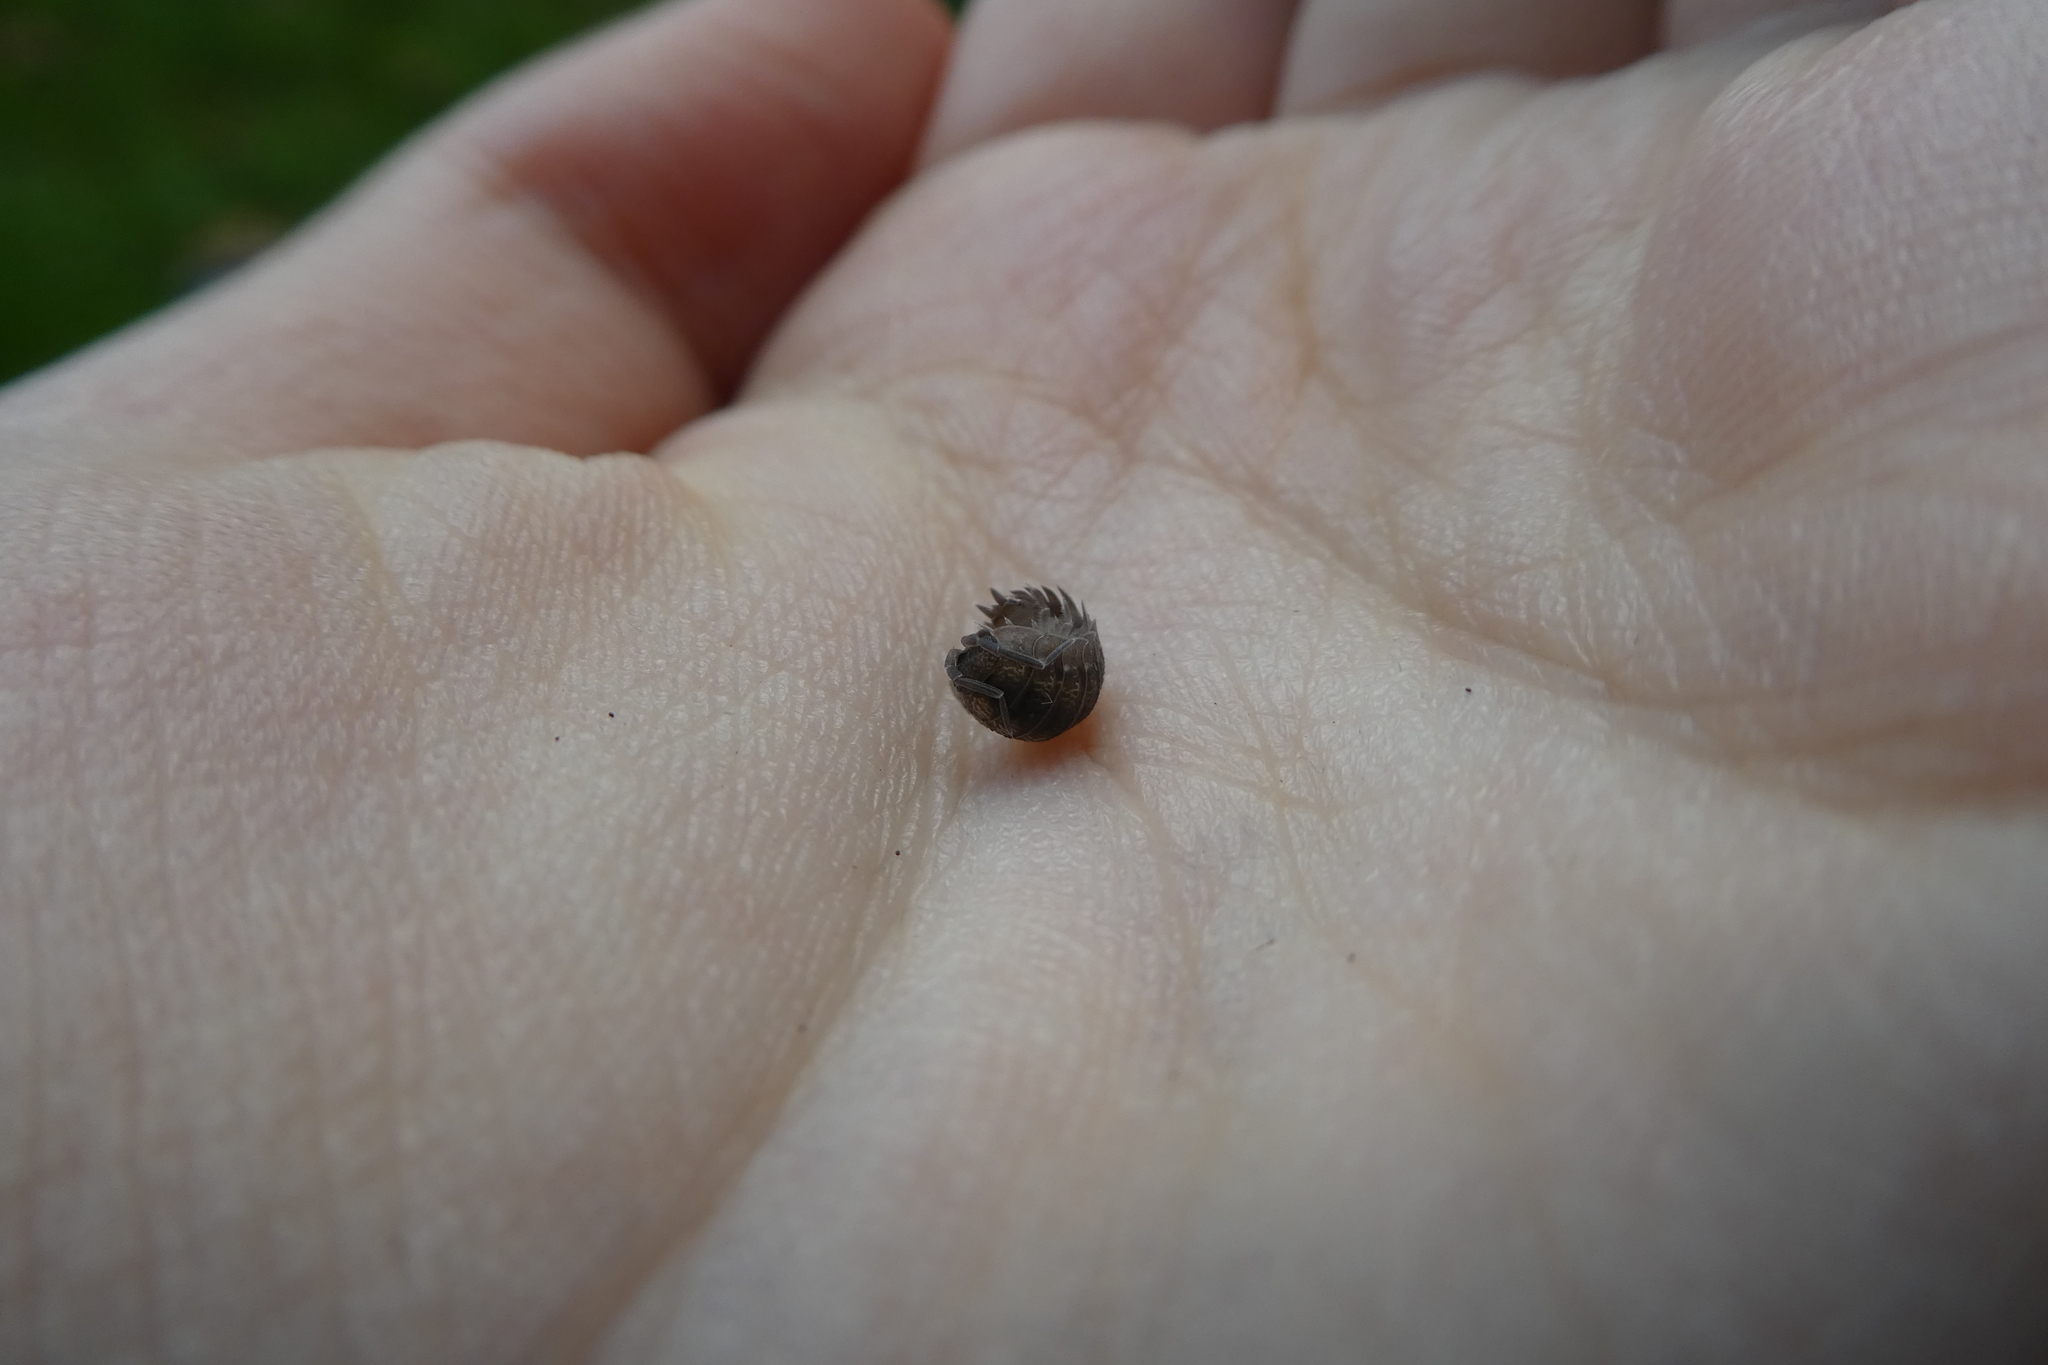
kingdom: Animalia
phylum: Arthropoda
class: Malacostraca
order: Isopoda
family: Porcellionidae
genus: Porcellio
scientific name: Porcellio scaber
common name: Common rough woodlouse
